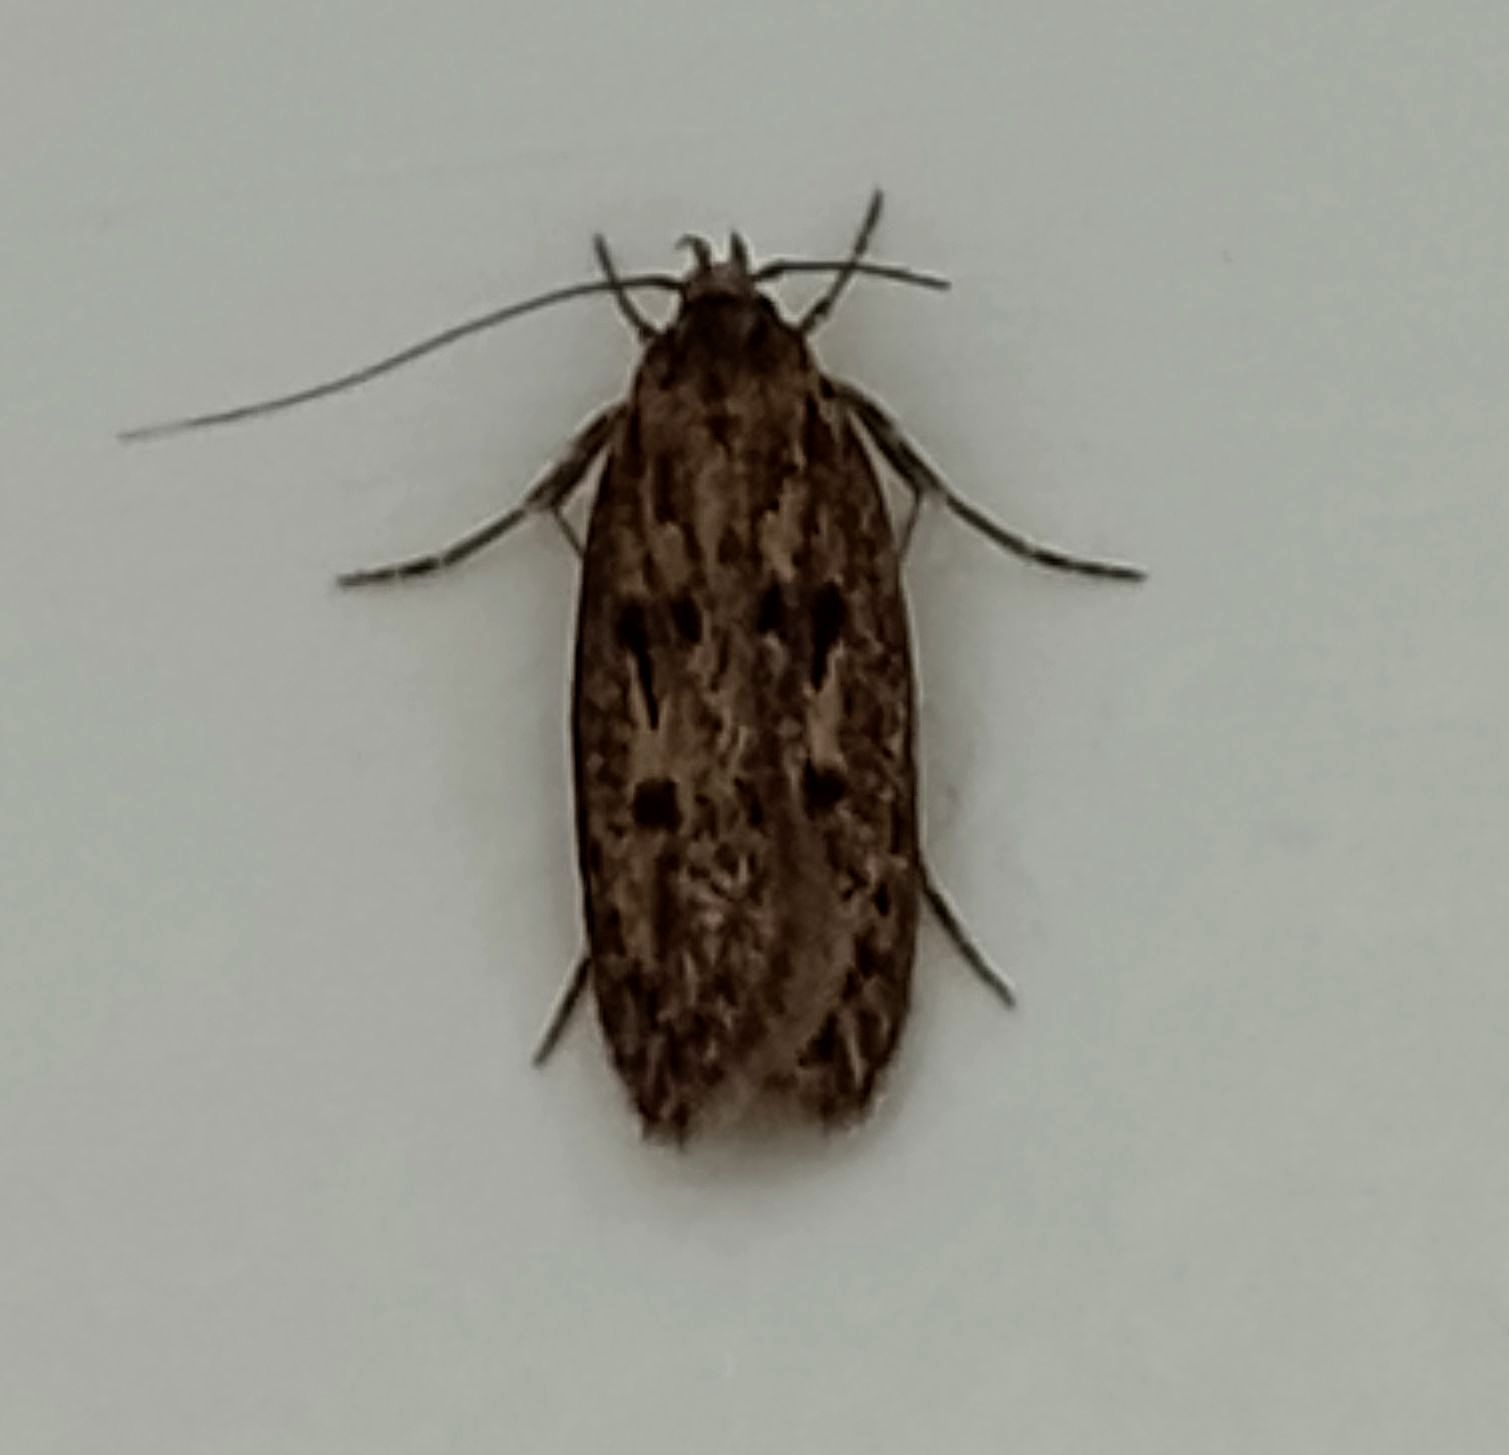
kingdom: Animalia
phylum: Arthropoda
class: Insecta
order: Lepidoptera
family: Oecophoridae
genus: Hofmannophila
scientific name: Hofmannophila pseudospretella
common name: Brown house moth
